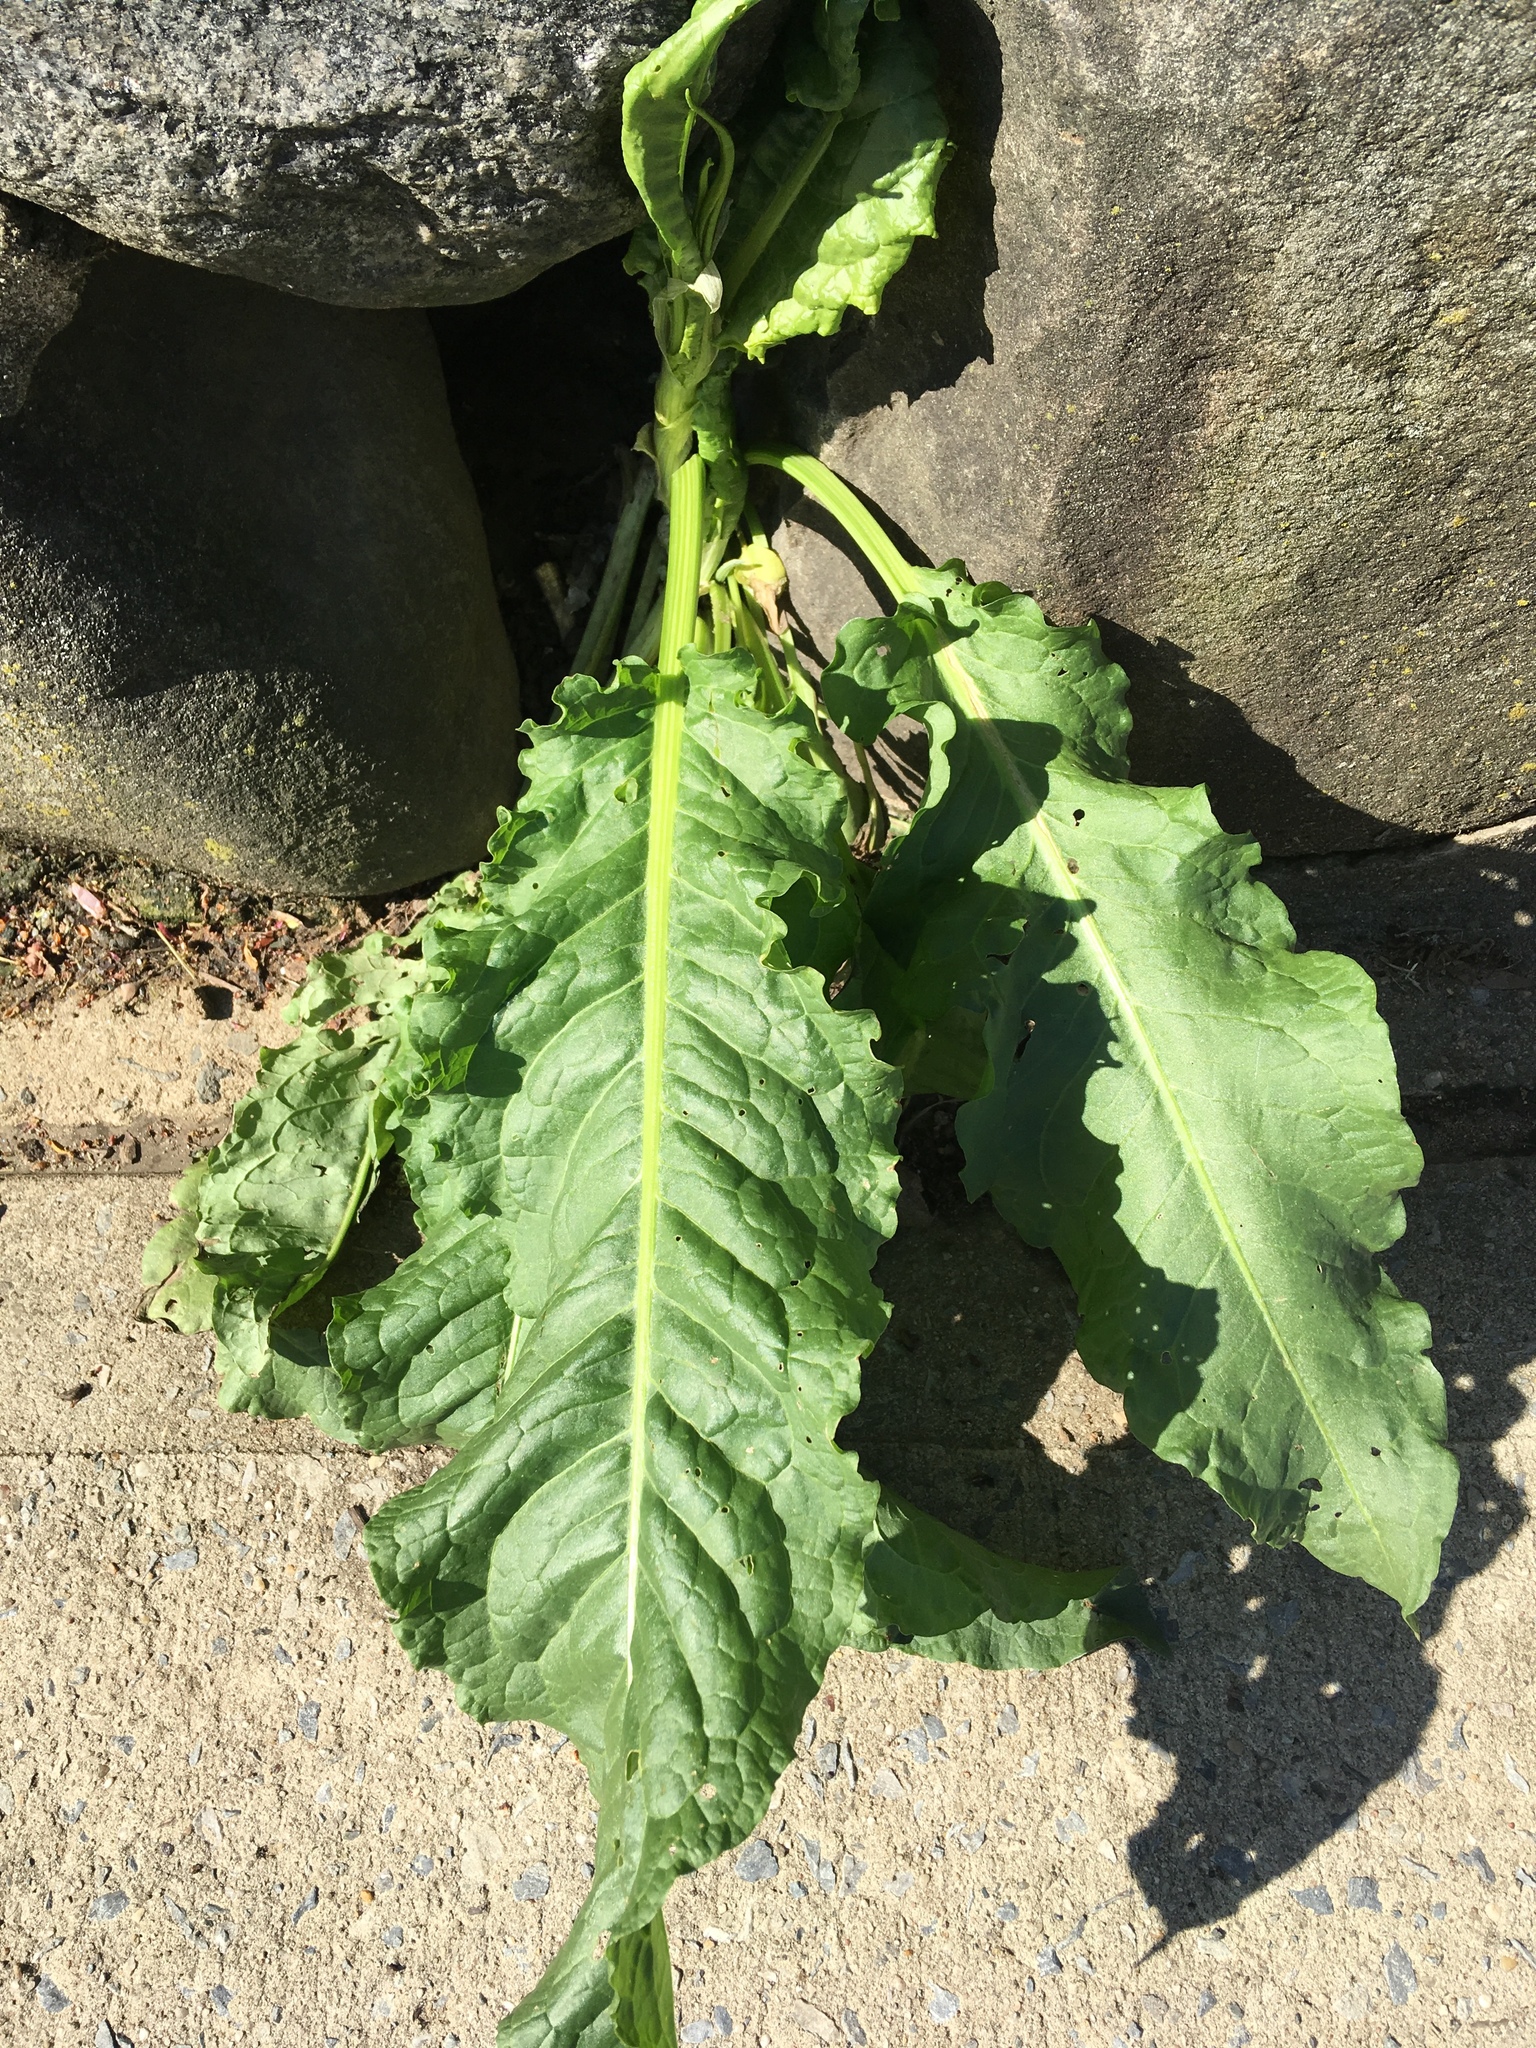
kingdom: Plantae
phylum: Tracheophyta
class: Magnoliopsida
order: Caryophyllales
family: Polygonaceae
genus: Rumex
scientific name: Rumex crispus
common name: Curled dock
